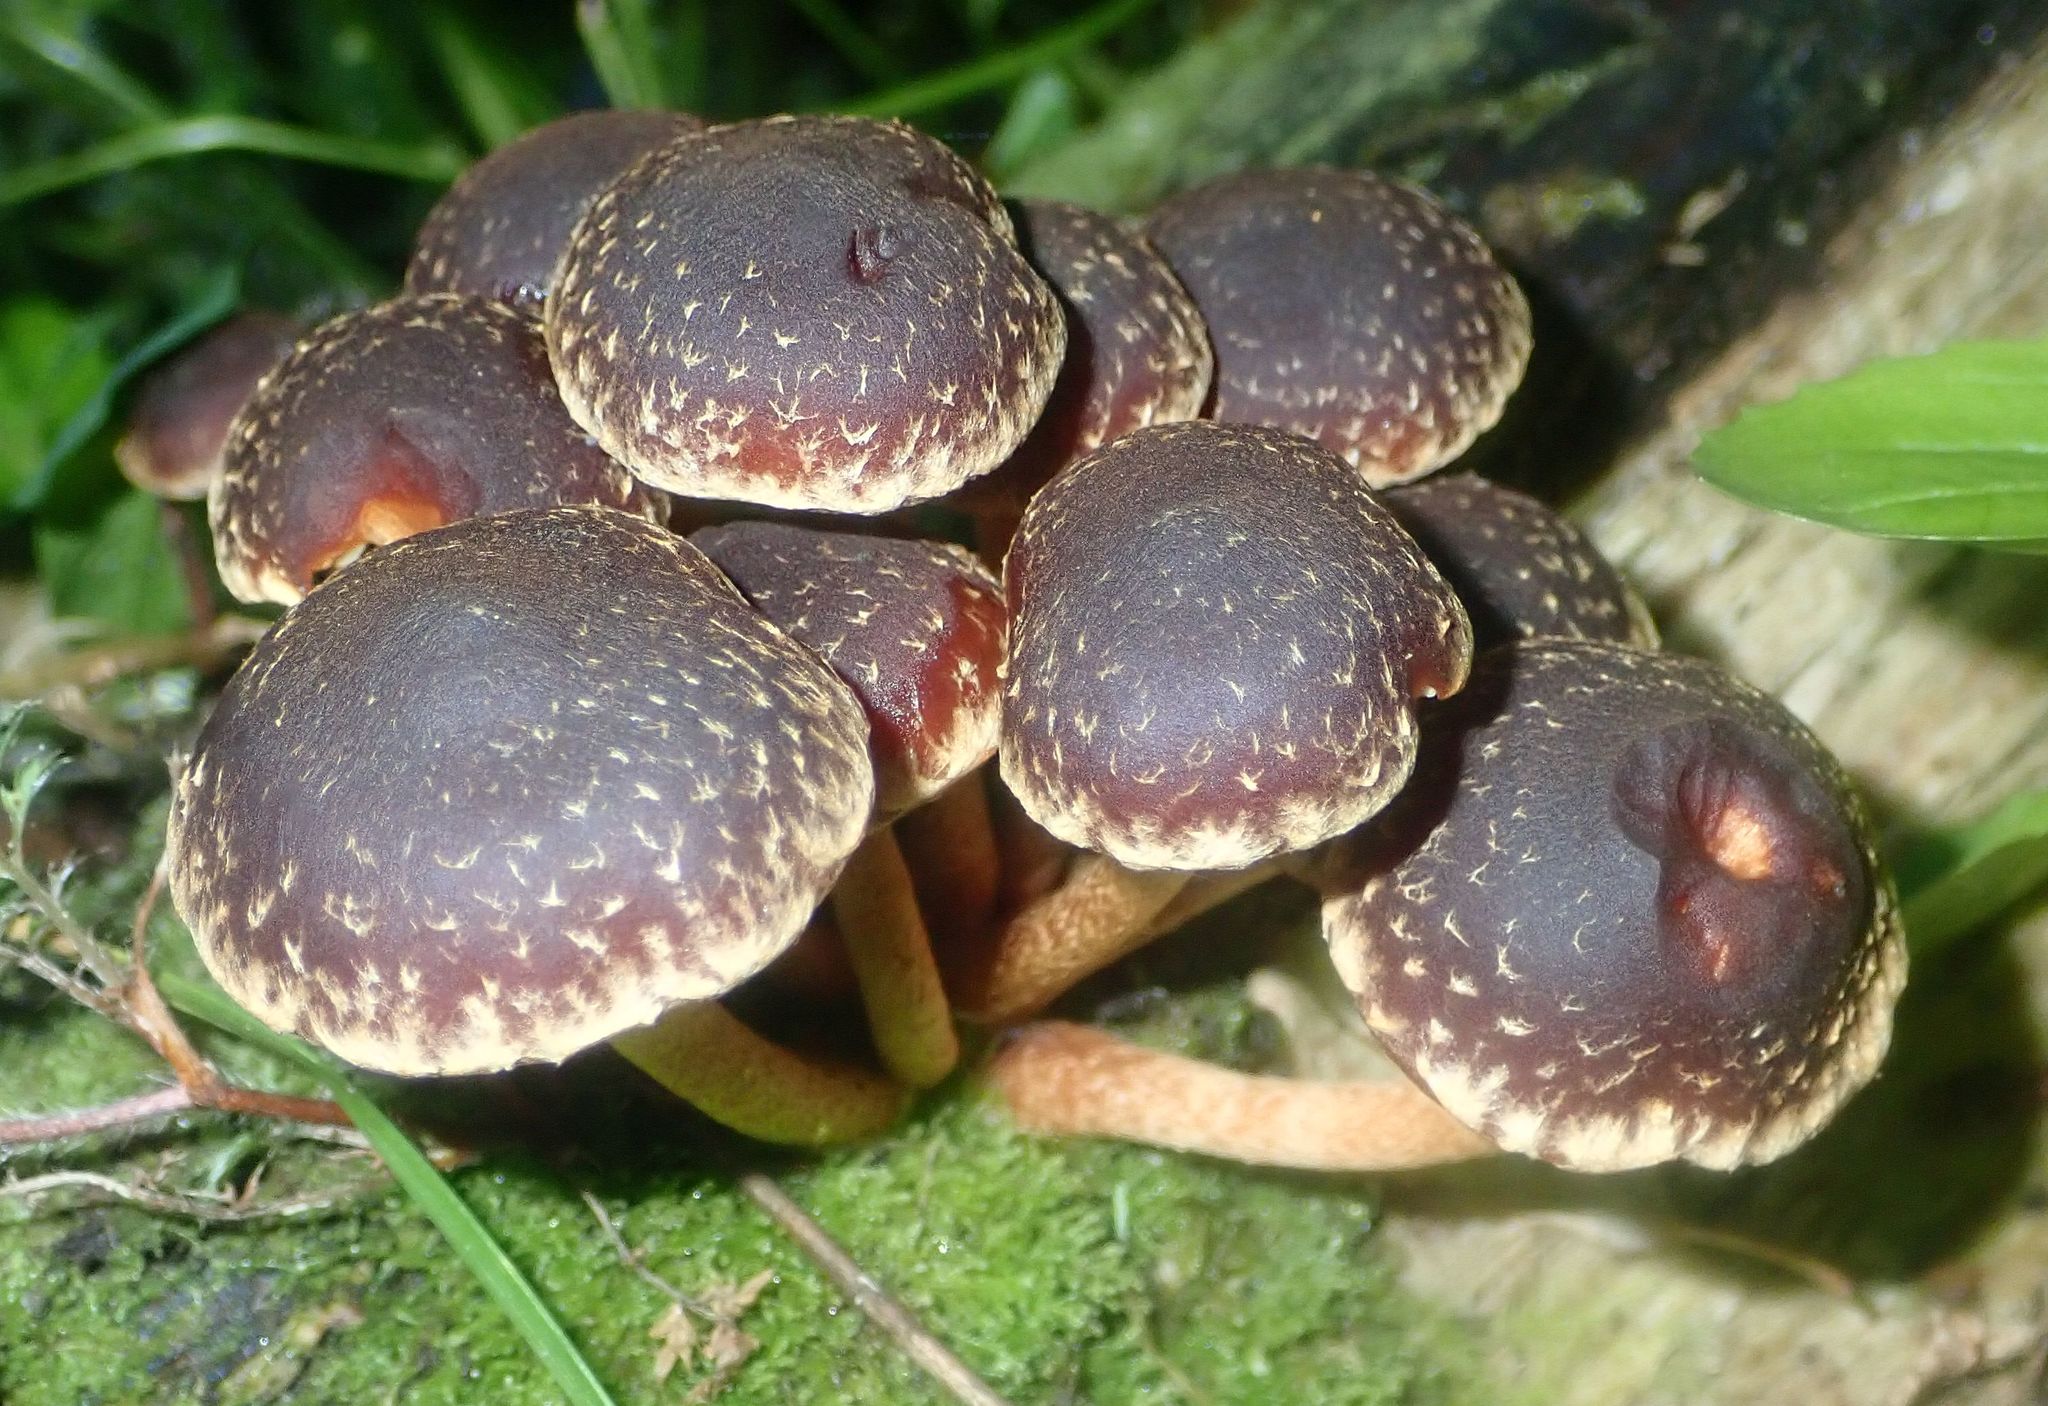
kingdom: Fungi
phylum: Basidiomycota
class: Agaricomycetes
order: Agaricales
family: Strophariaceae
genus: Hypholoma
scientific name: Hypholoma brunneum
